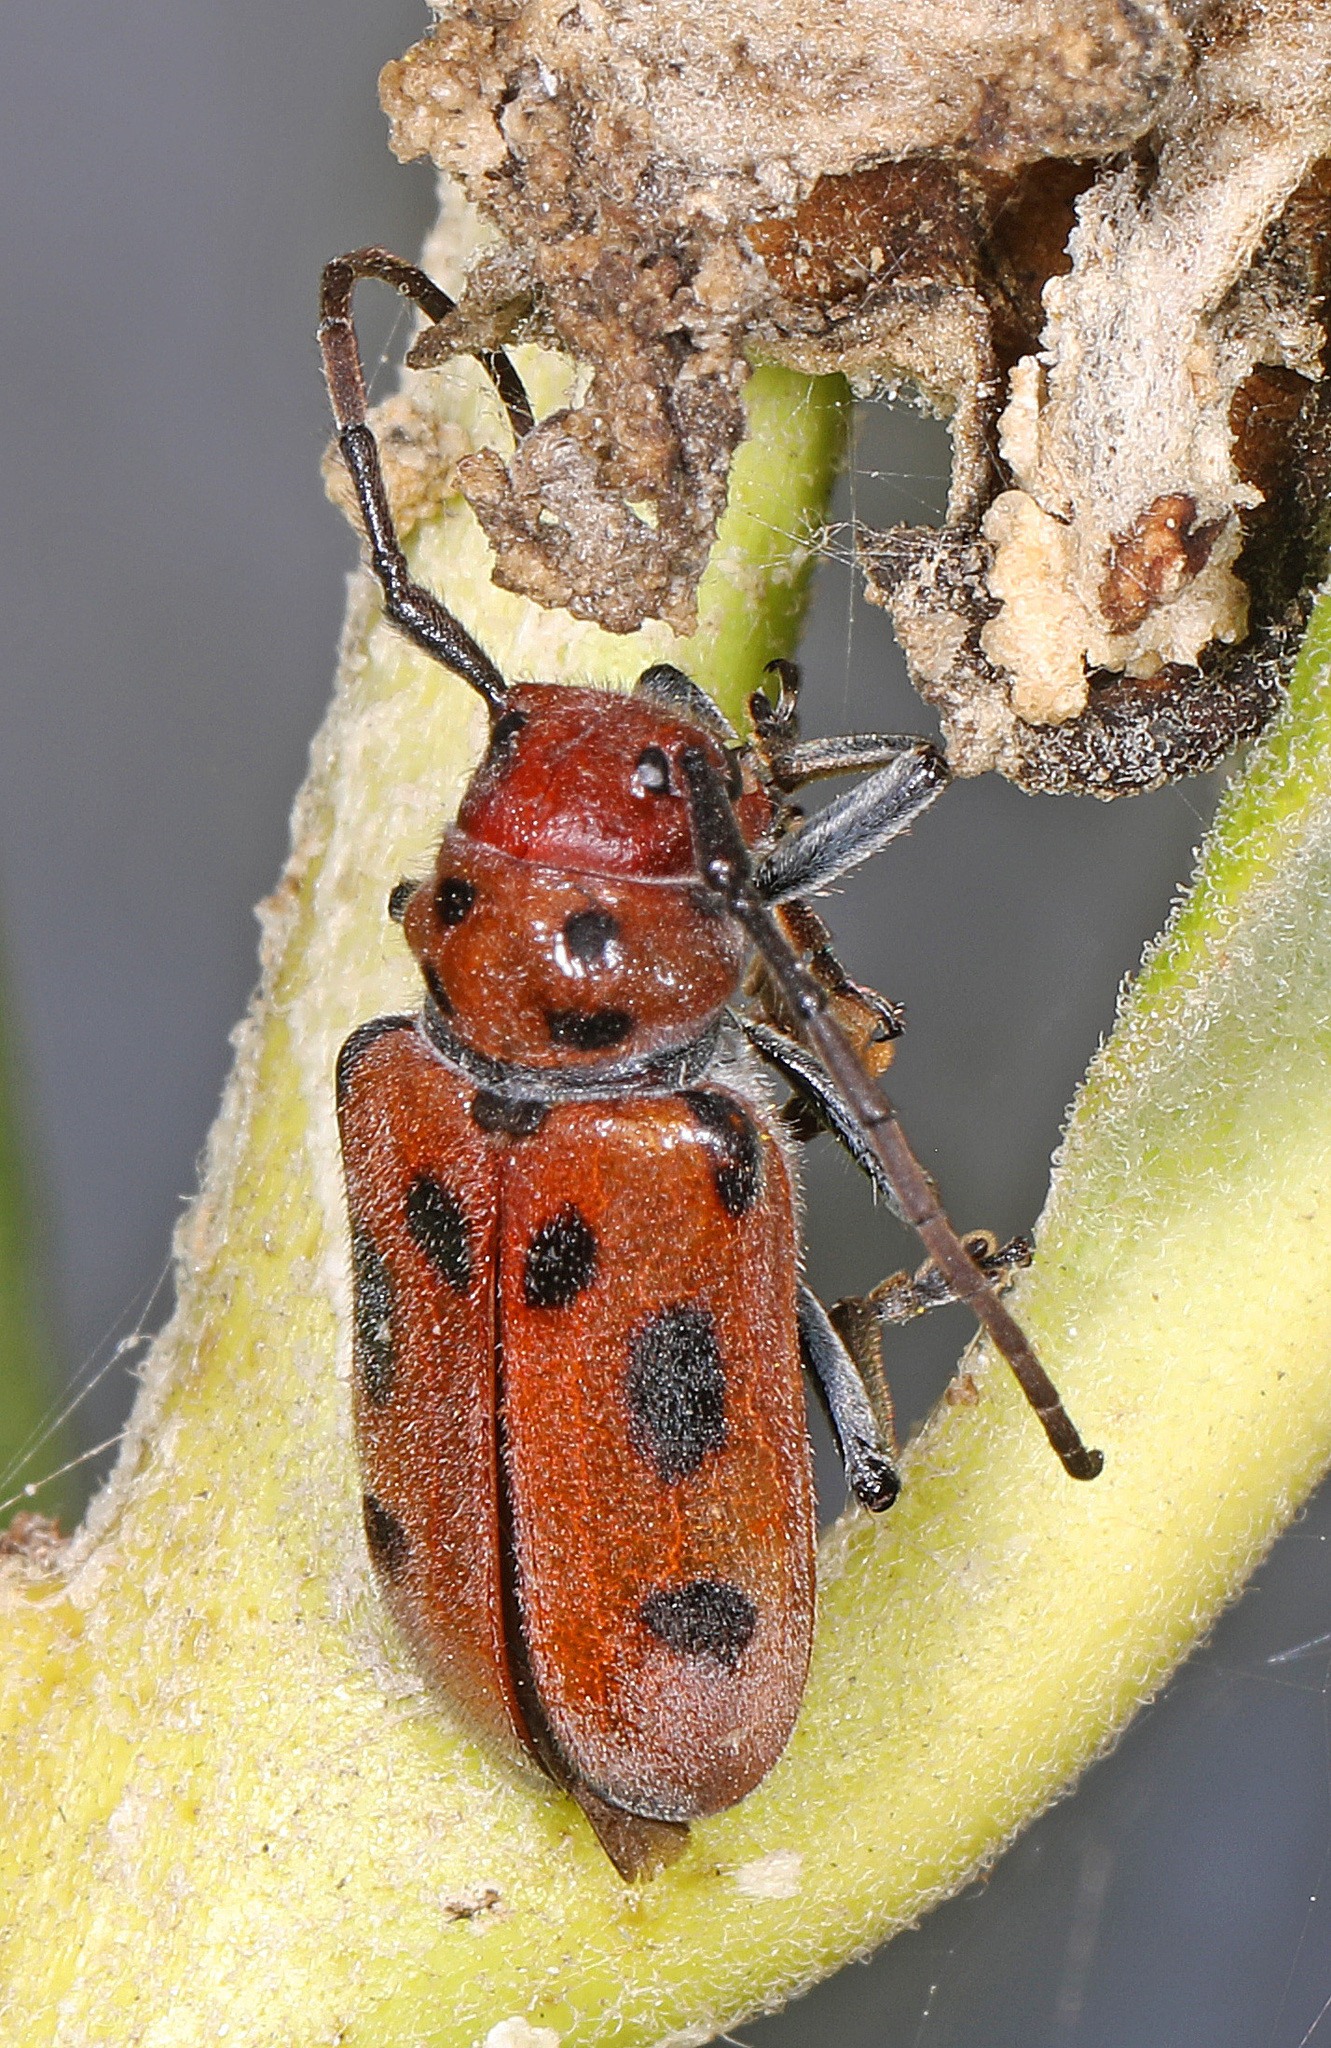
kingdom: Animalia
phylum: Arthropoda
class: Insecta
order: Coleoptera
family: Cerambycidae
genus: Tetraopes
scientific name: Tetraopes tetrophthalmus
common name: Red milkweed beetle
